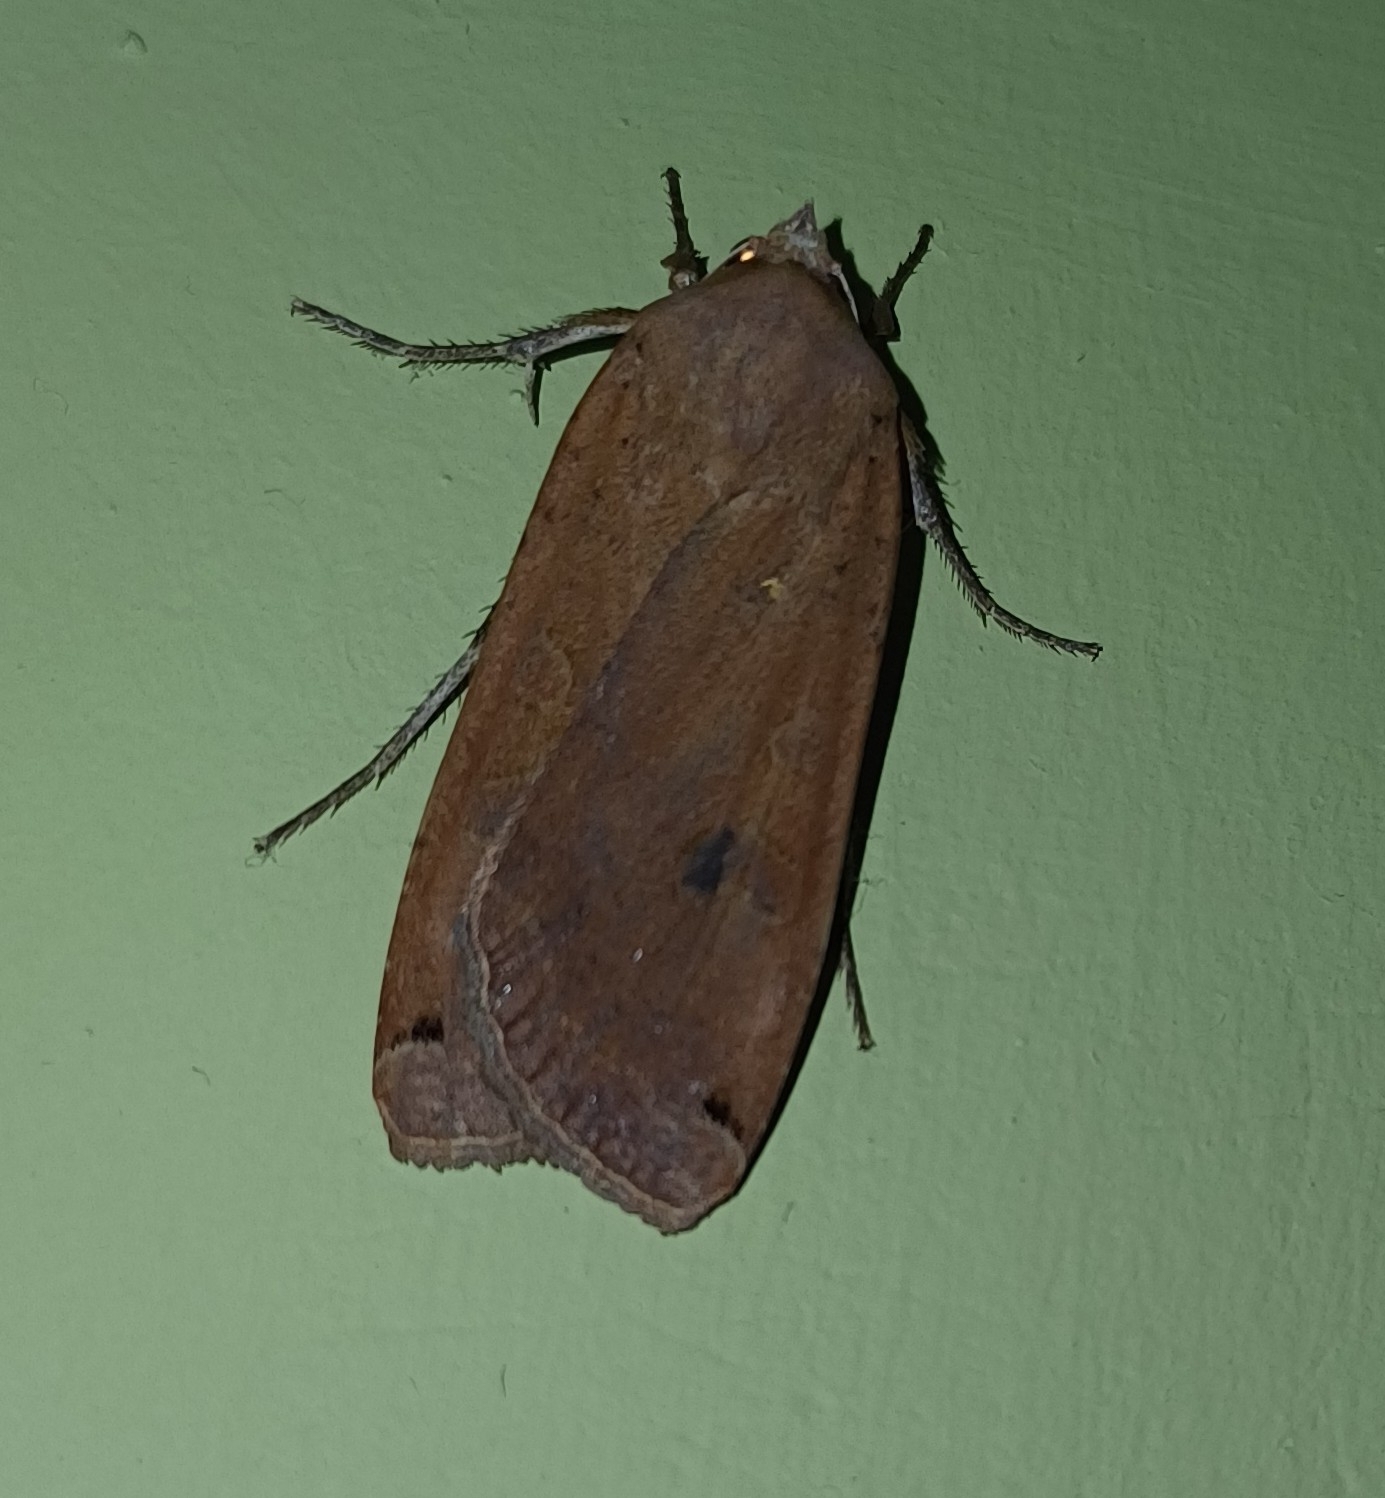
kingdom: Animalia
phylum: Arthropoda
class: Insecta
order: Lepidoptera
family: Noctuidae
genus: Noctua
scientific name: Noctua pronuba
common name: Large yellow underwing
